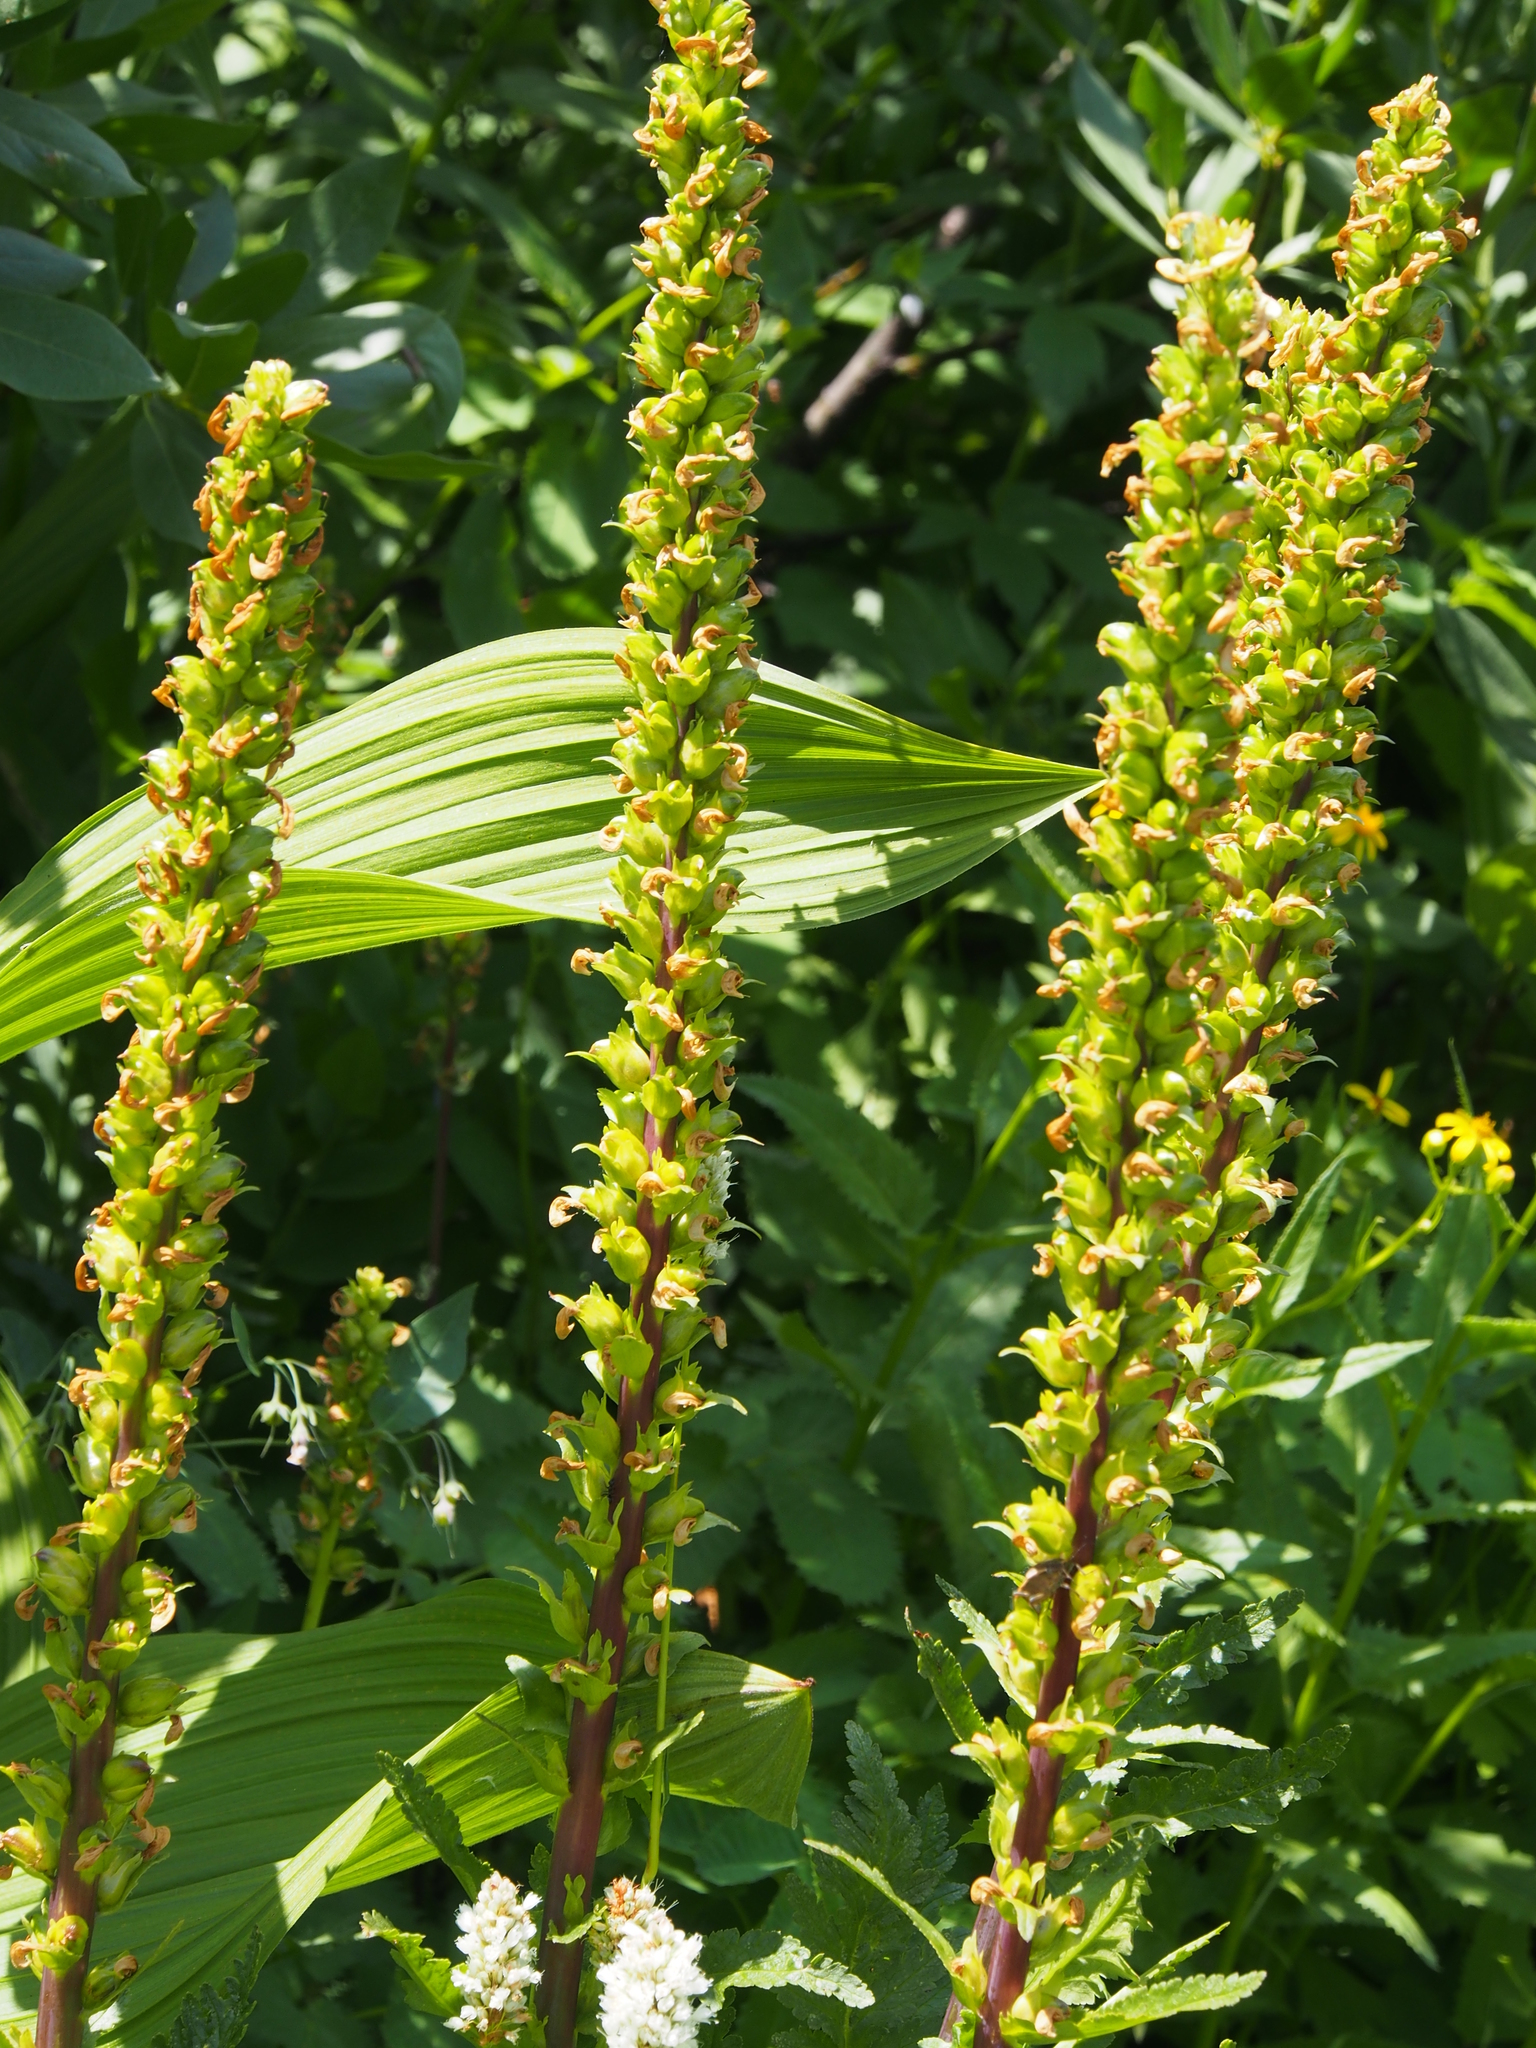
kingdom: Plantae
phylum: Tracheophyta
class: Magnoliopsida
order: Lamiales
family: Orobanchaceae
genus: Pedicularis
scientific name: Pedicularis bracteosa
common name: Bracted lousewort
